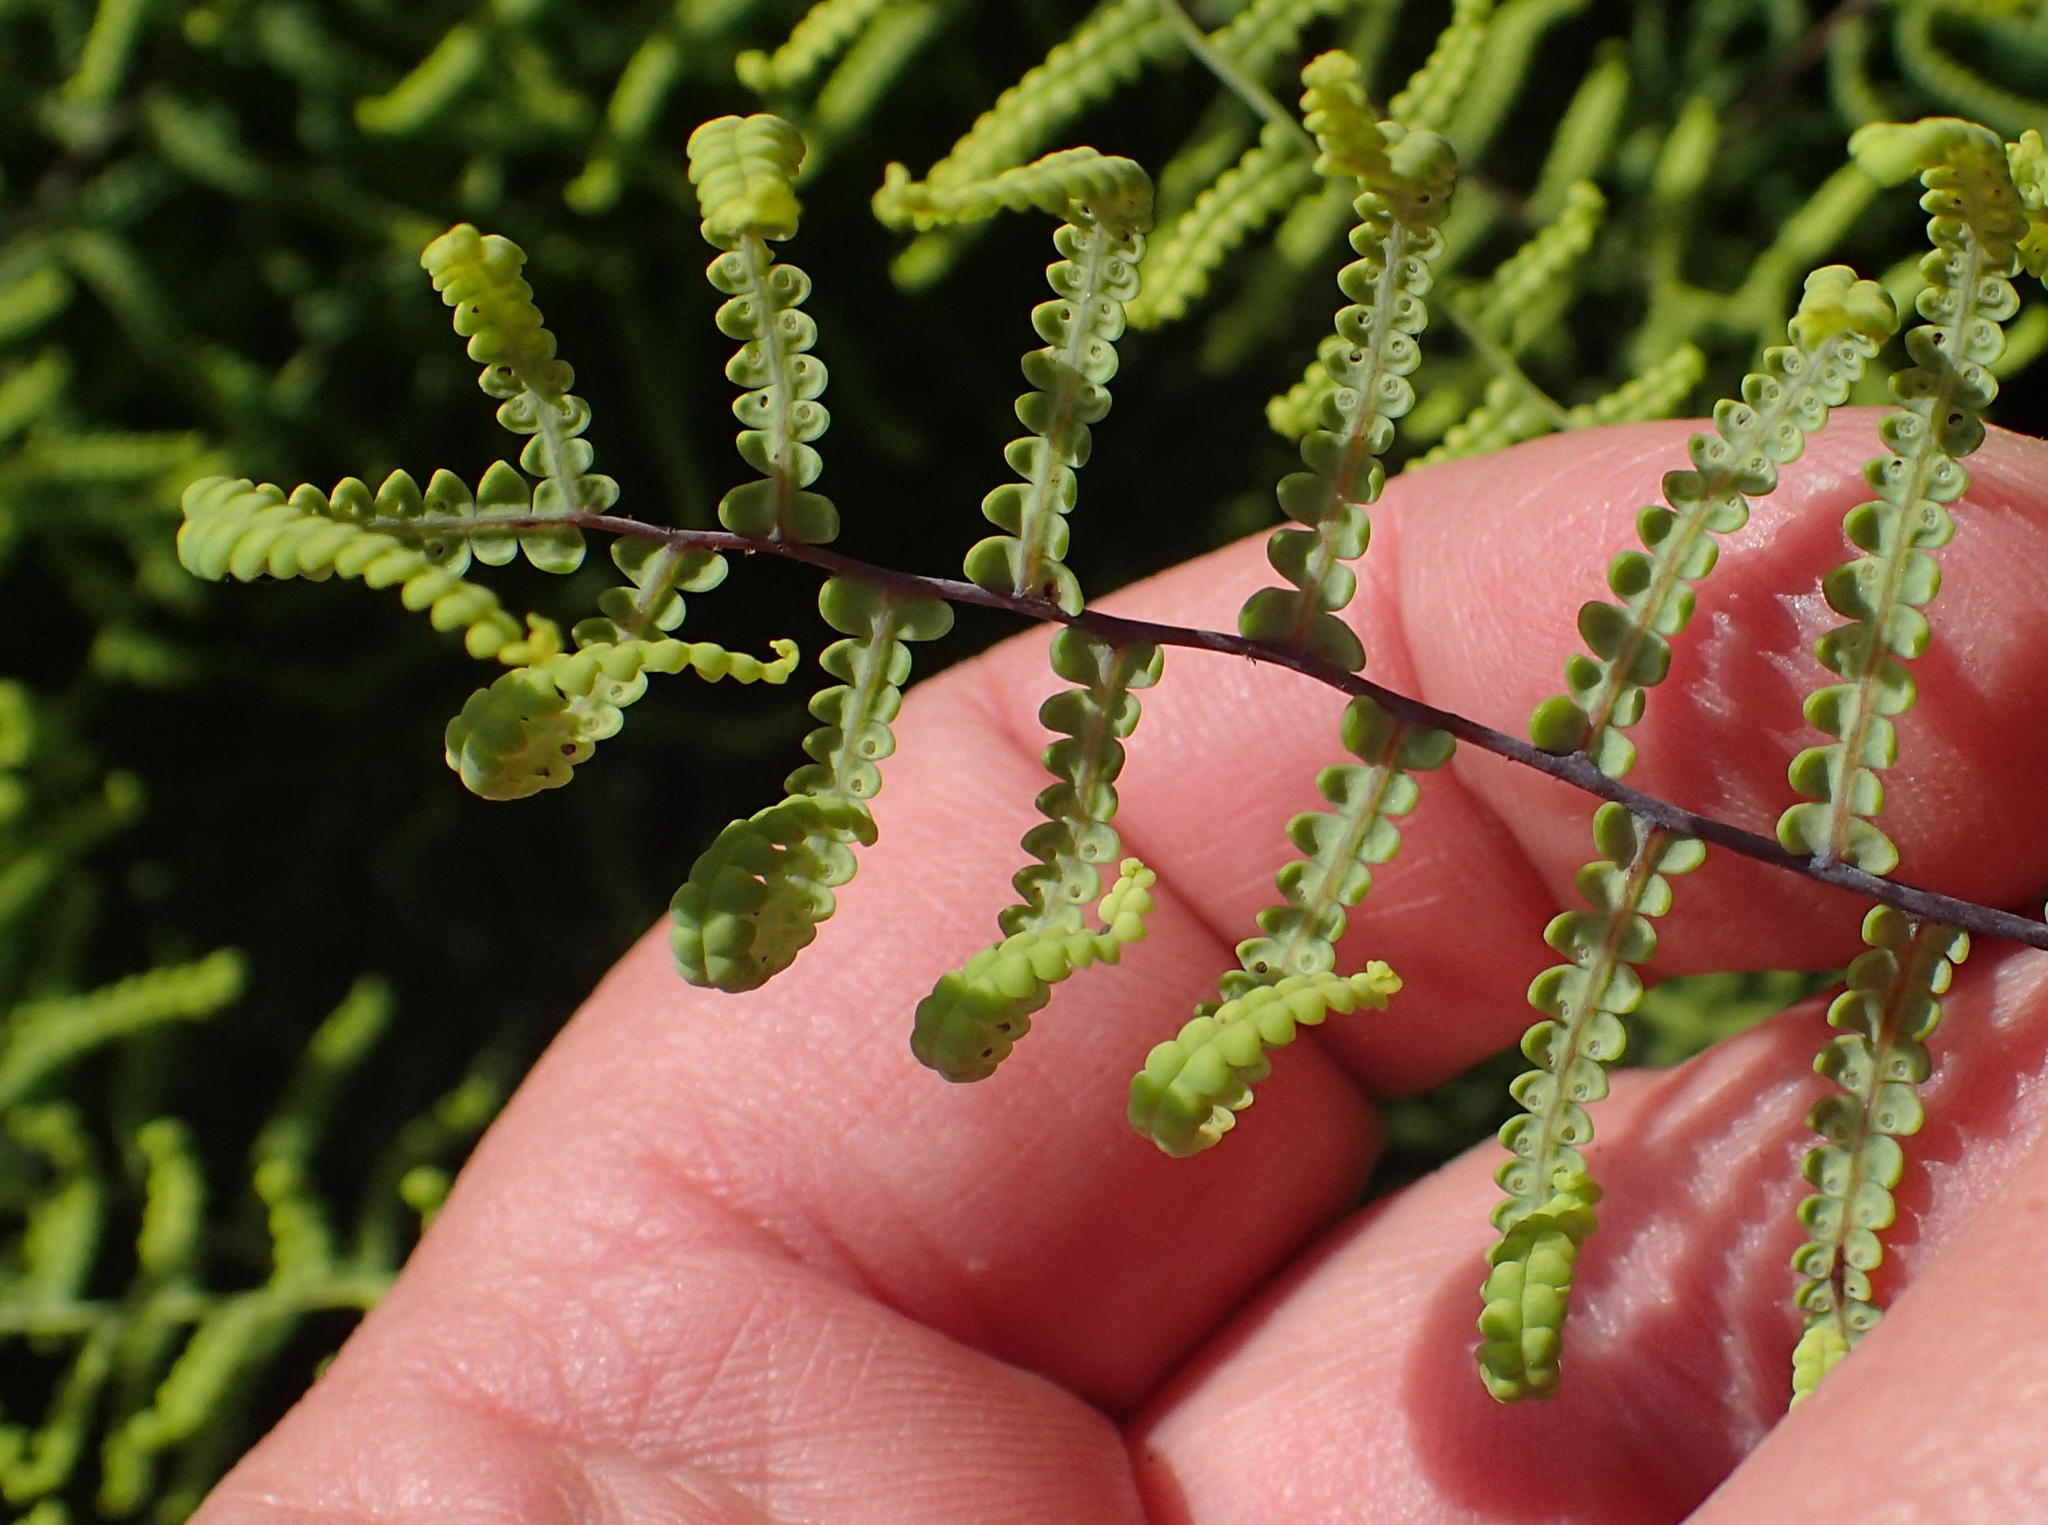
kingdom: Plantae
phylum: Tracheophyta
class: Polypodiopsida
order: Gleicheniales
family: Gleicheniaceae
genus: Gleichenia
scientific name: Gleichenia polypodioides
